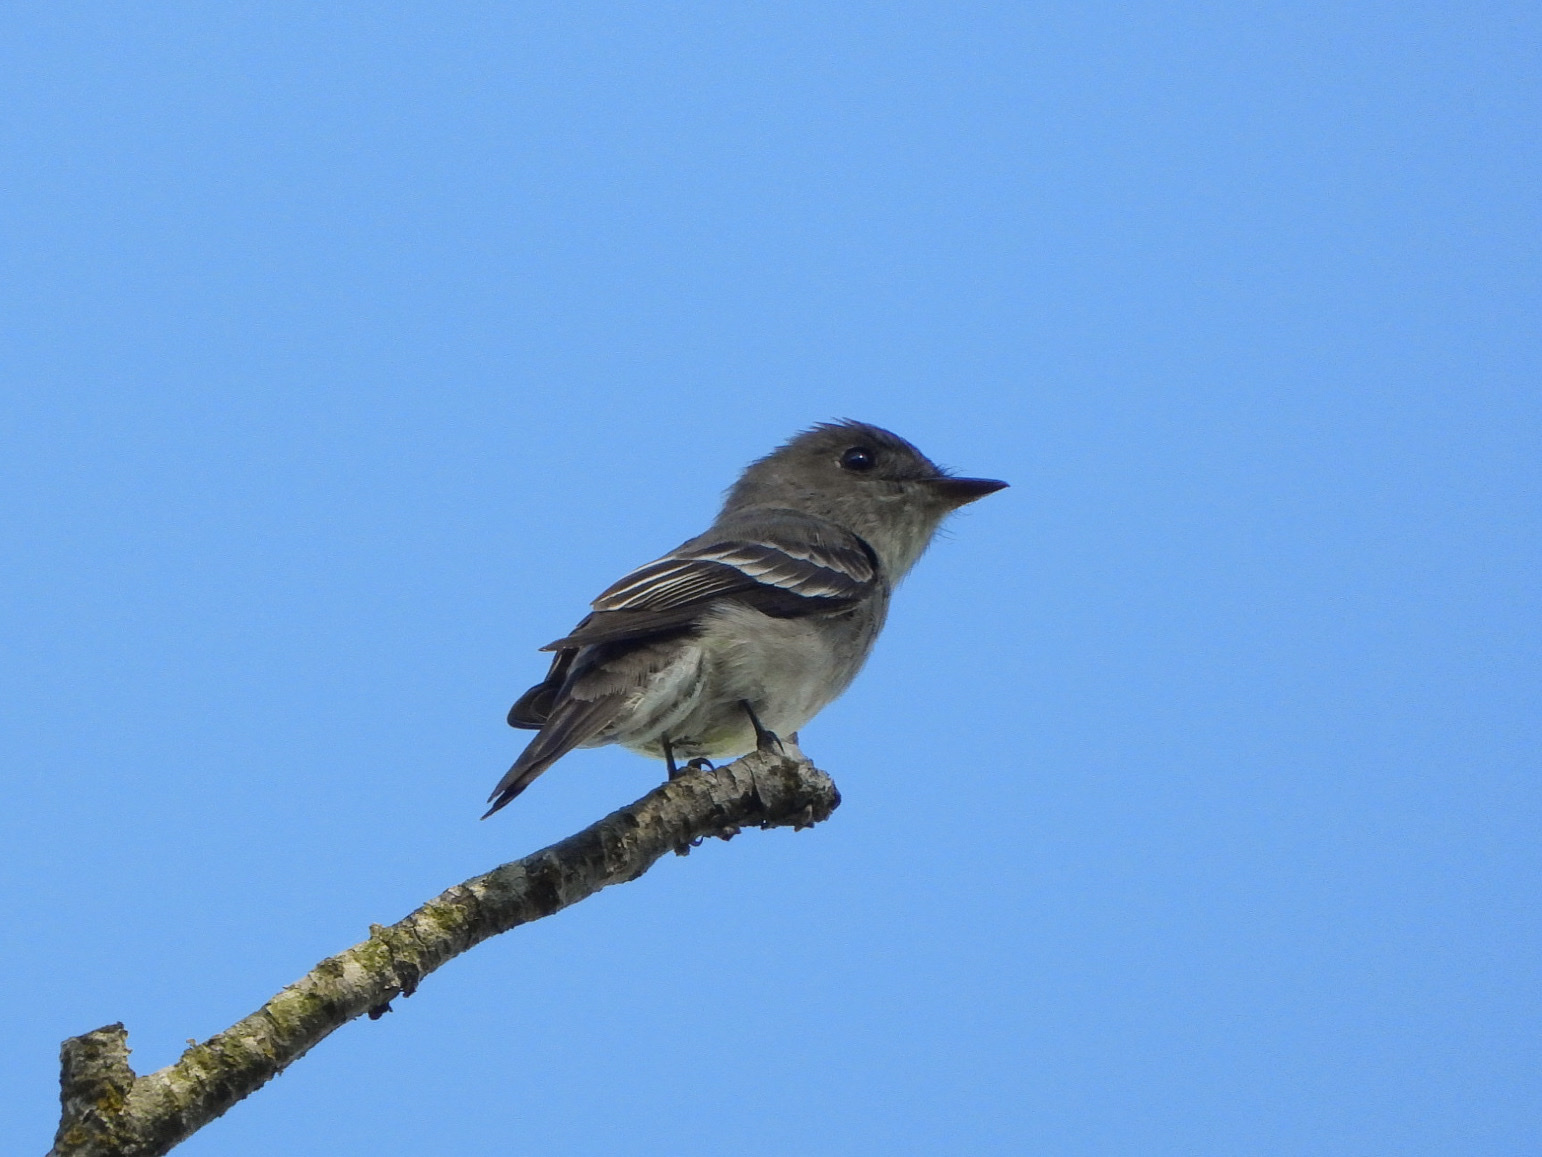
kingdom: Animalia
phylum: Chordata
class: Aves
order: Passeriformes
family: Tyrannidae
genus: Contopus
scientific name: Contopus sordidulus
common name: Western wood-pewee
